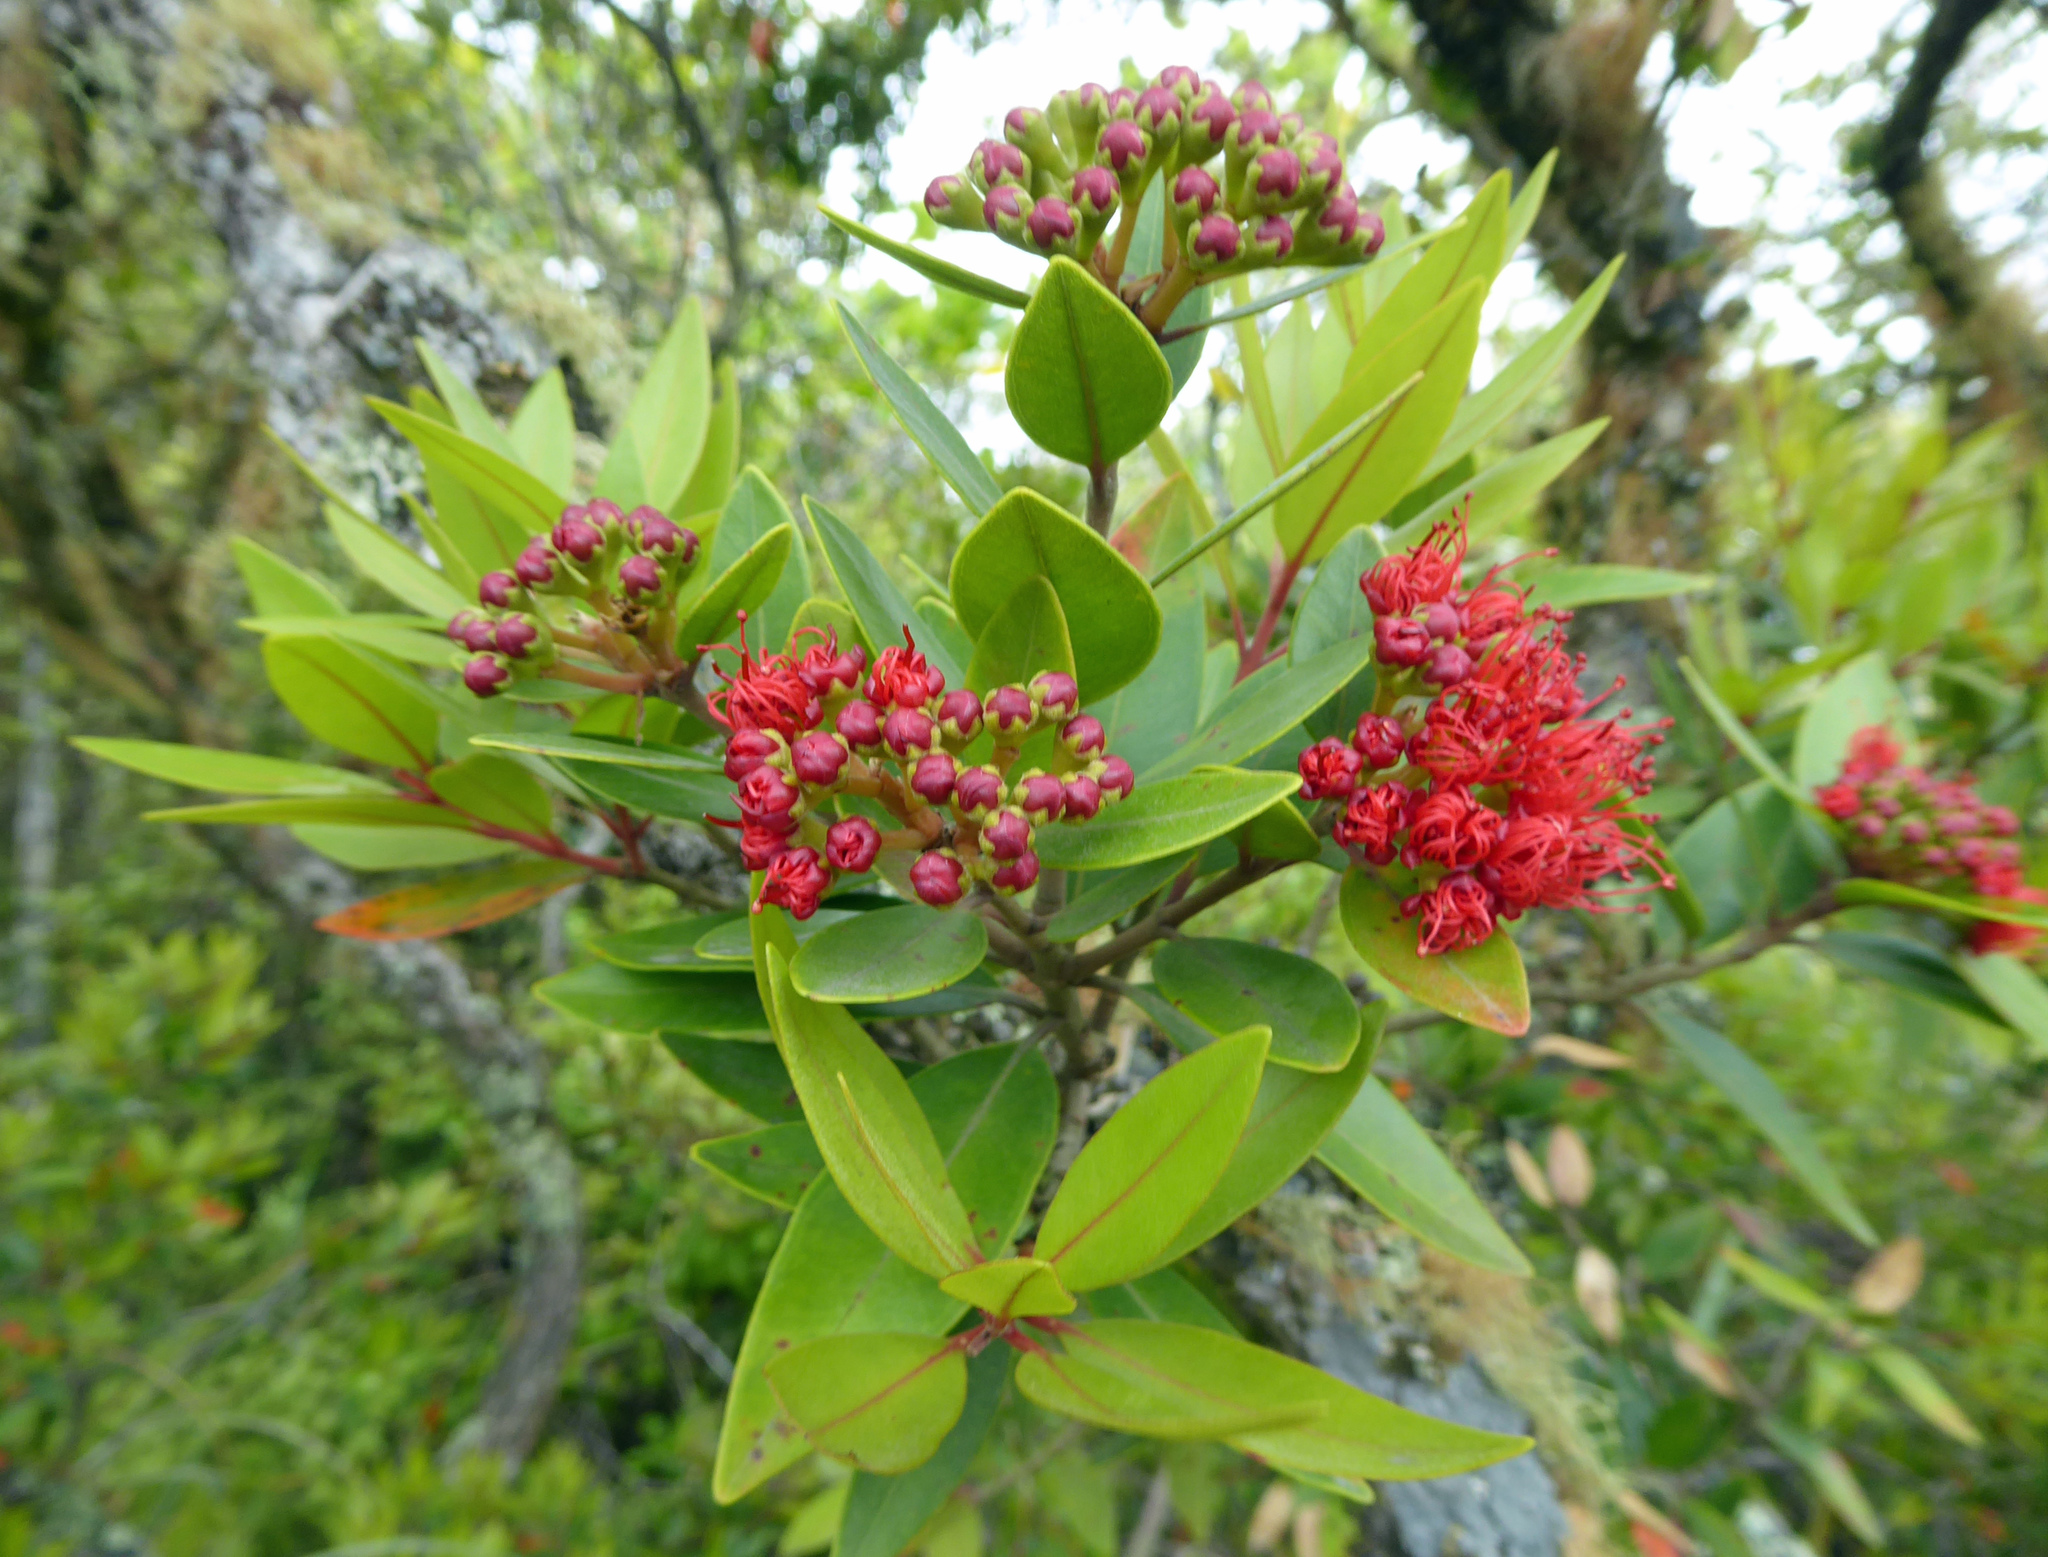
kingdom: Plantae
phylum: Tracheophyta
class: Magnoliopsida
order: Myrtales
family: Myrtaceae
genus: Metrosideros
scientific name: Metrosideros subtomentosa
